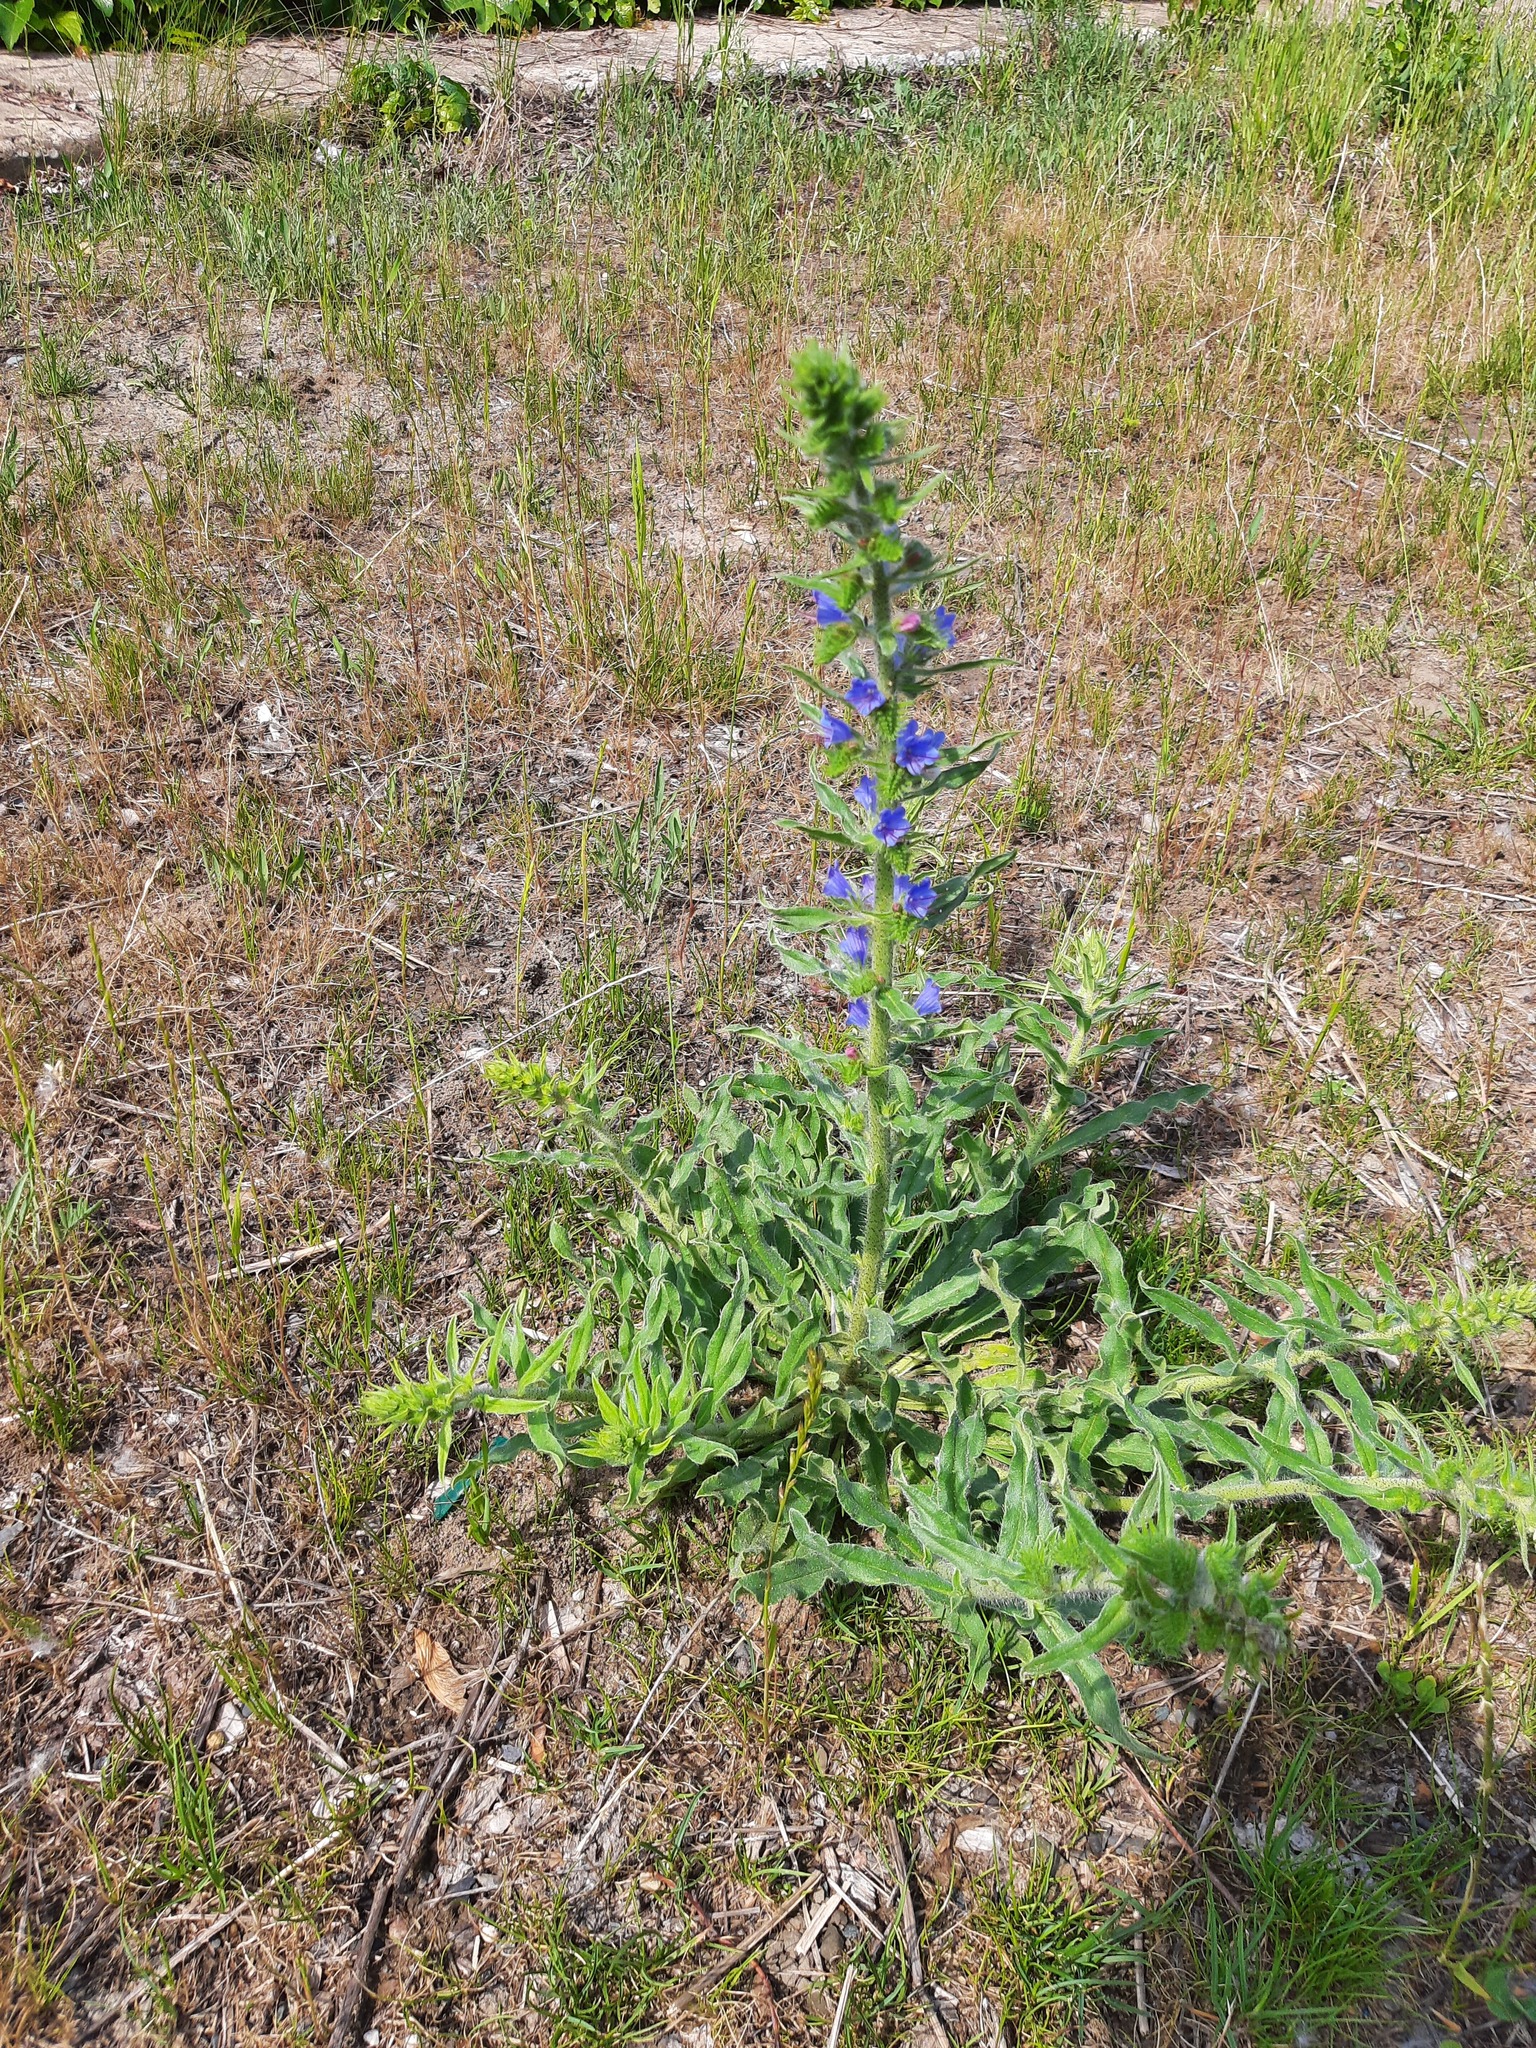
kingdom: Plantae
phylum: Tracheophyta
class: Magnoliopsida
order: Boraginales
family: Boraginaceae
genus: Echium
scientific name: Echium vulgare
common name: Common viper's bugloss
